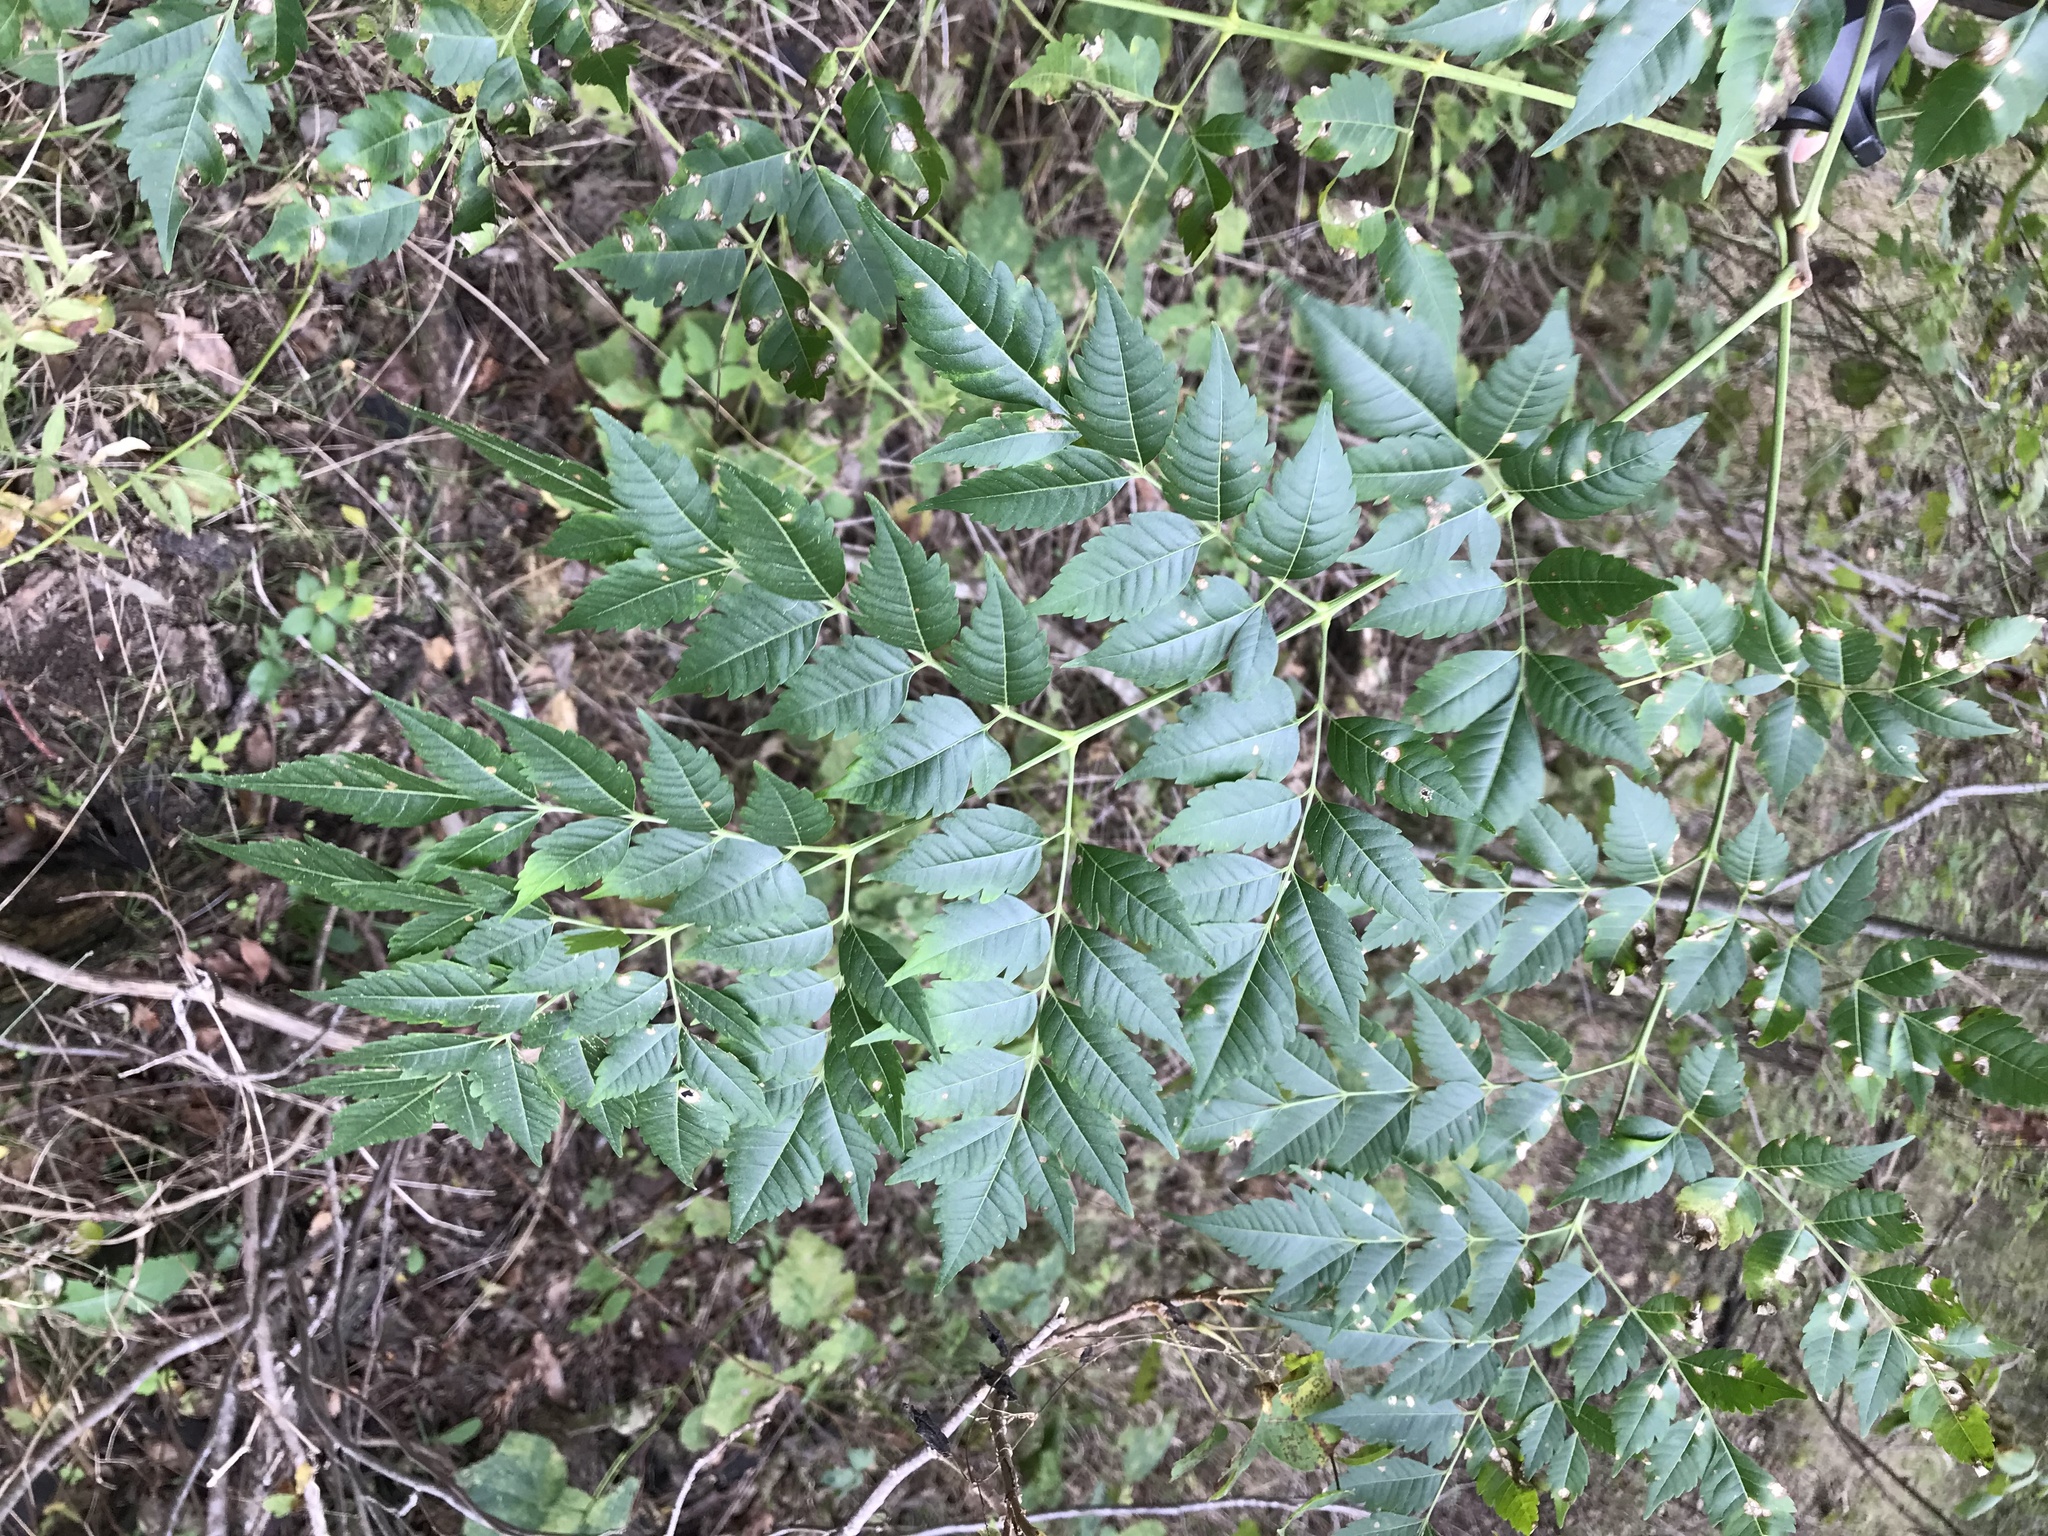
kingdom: Plantae
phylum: Tracheophyta
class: Magnoliopsida
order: Sapindales
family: Meliaceae
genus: Melia
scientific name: Melia azedarach
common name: Chinaberrytree
